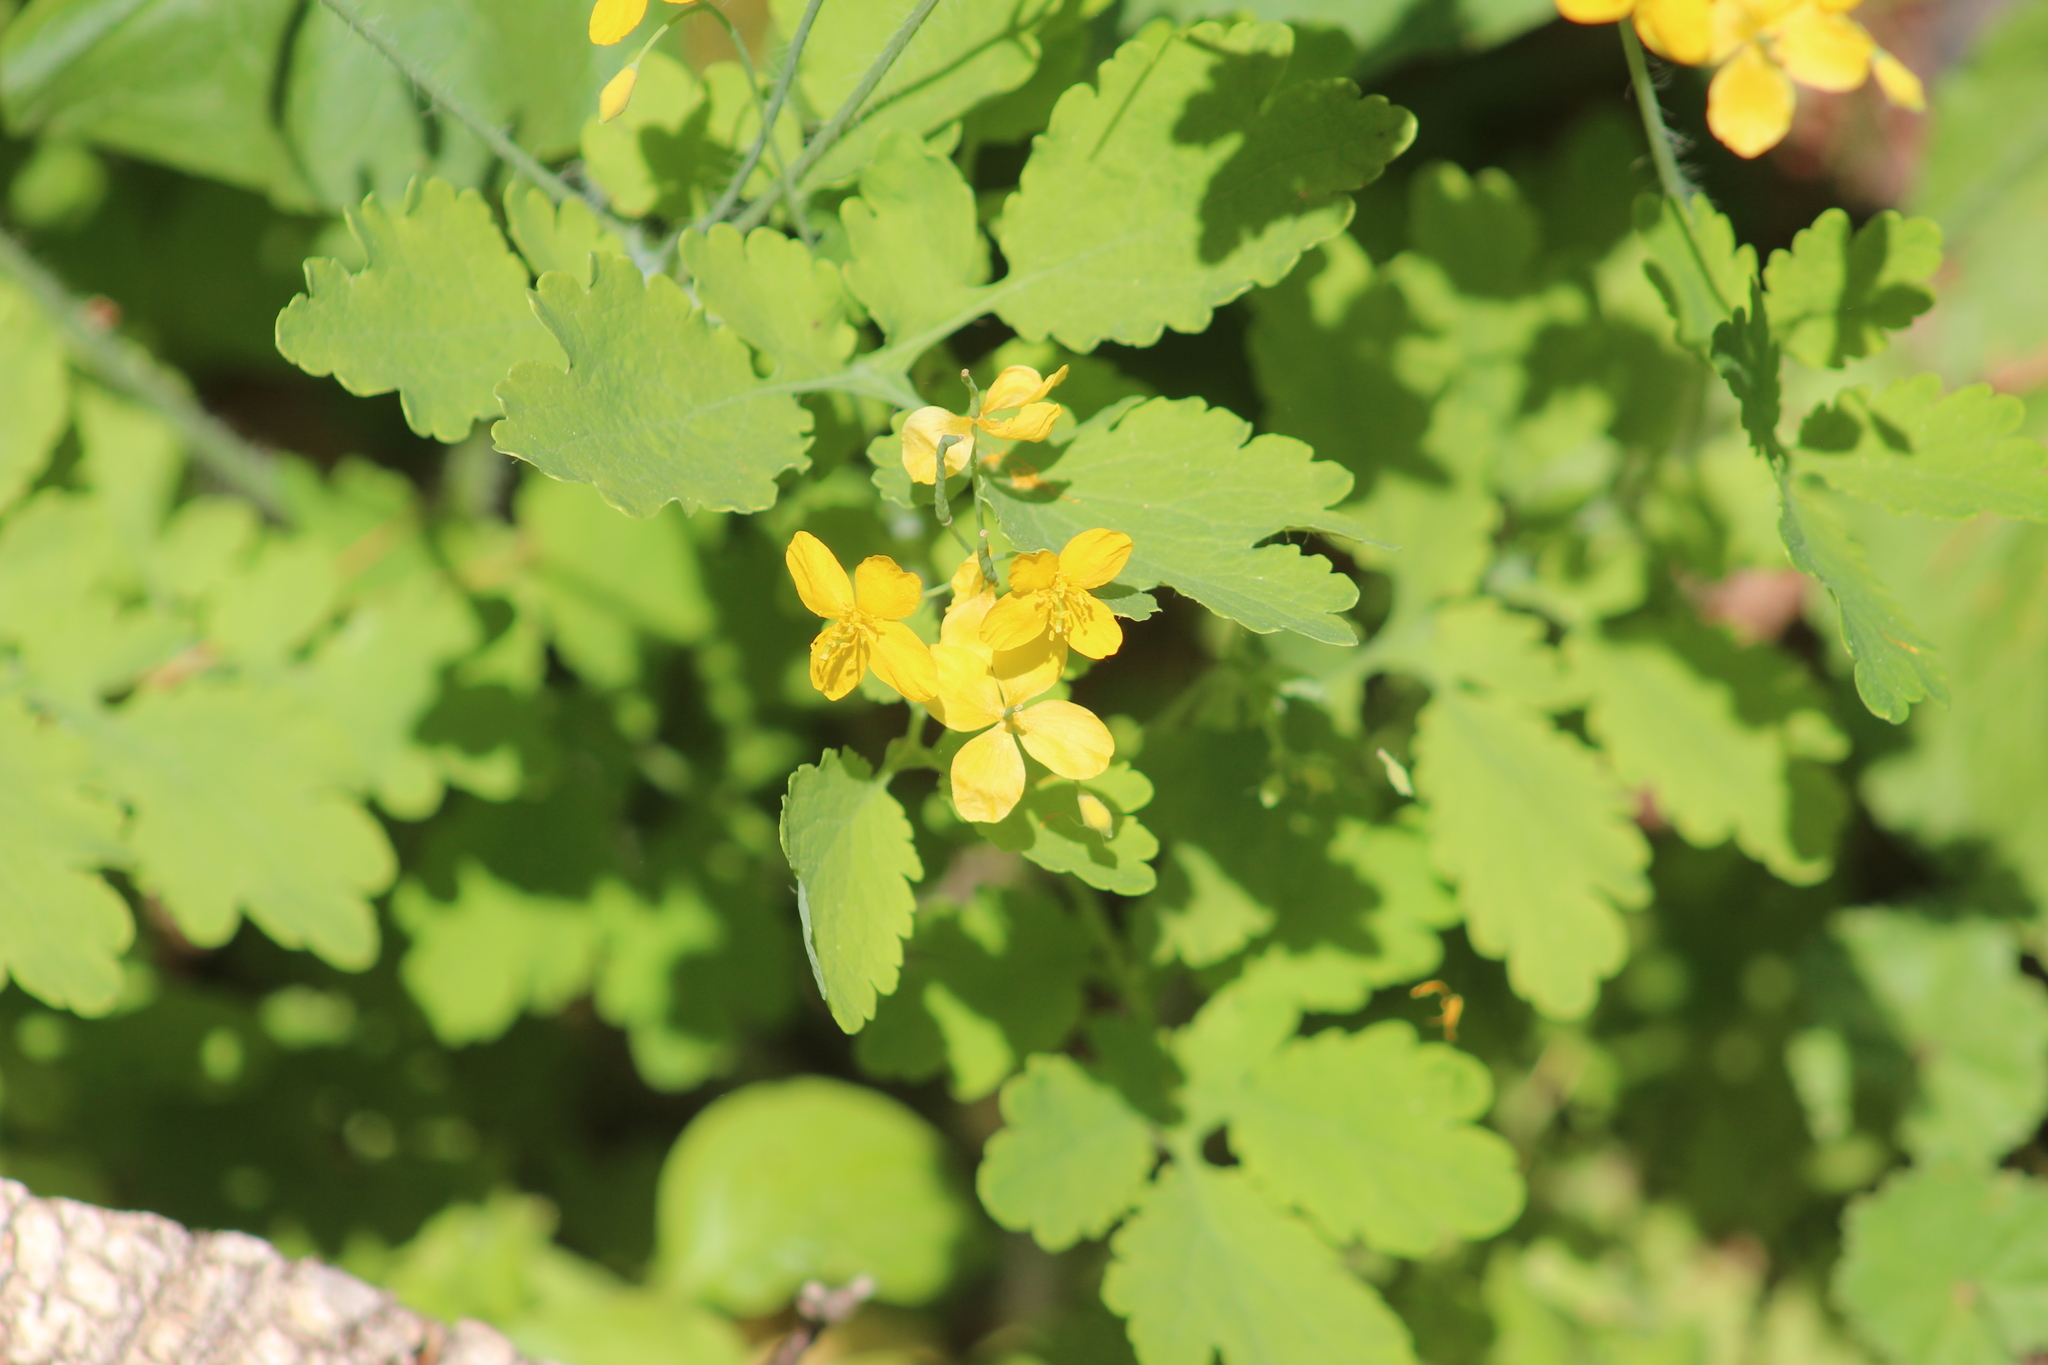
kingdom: Plantae
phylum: Tracheophyta
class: Magnoliopsida
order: Ranunculales
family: Papaveraceae
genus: Chelidonium
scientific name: Chelidonium majus
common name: Greater celandine
